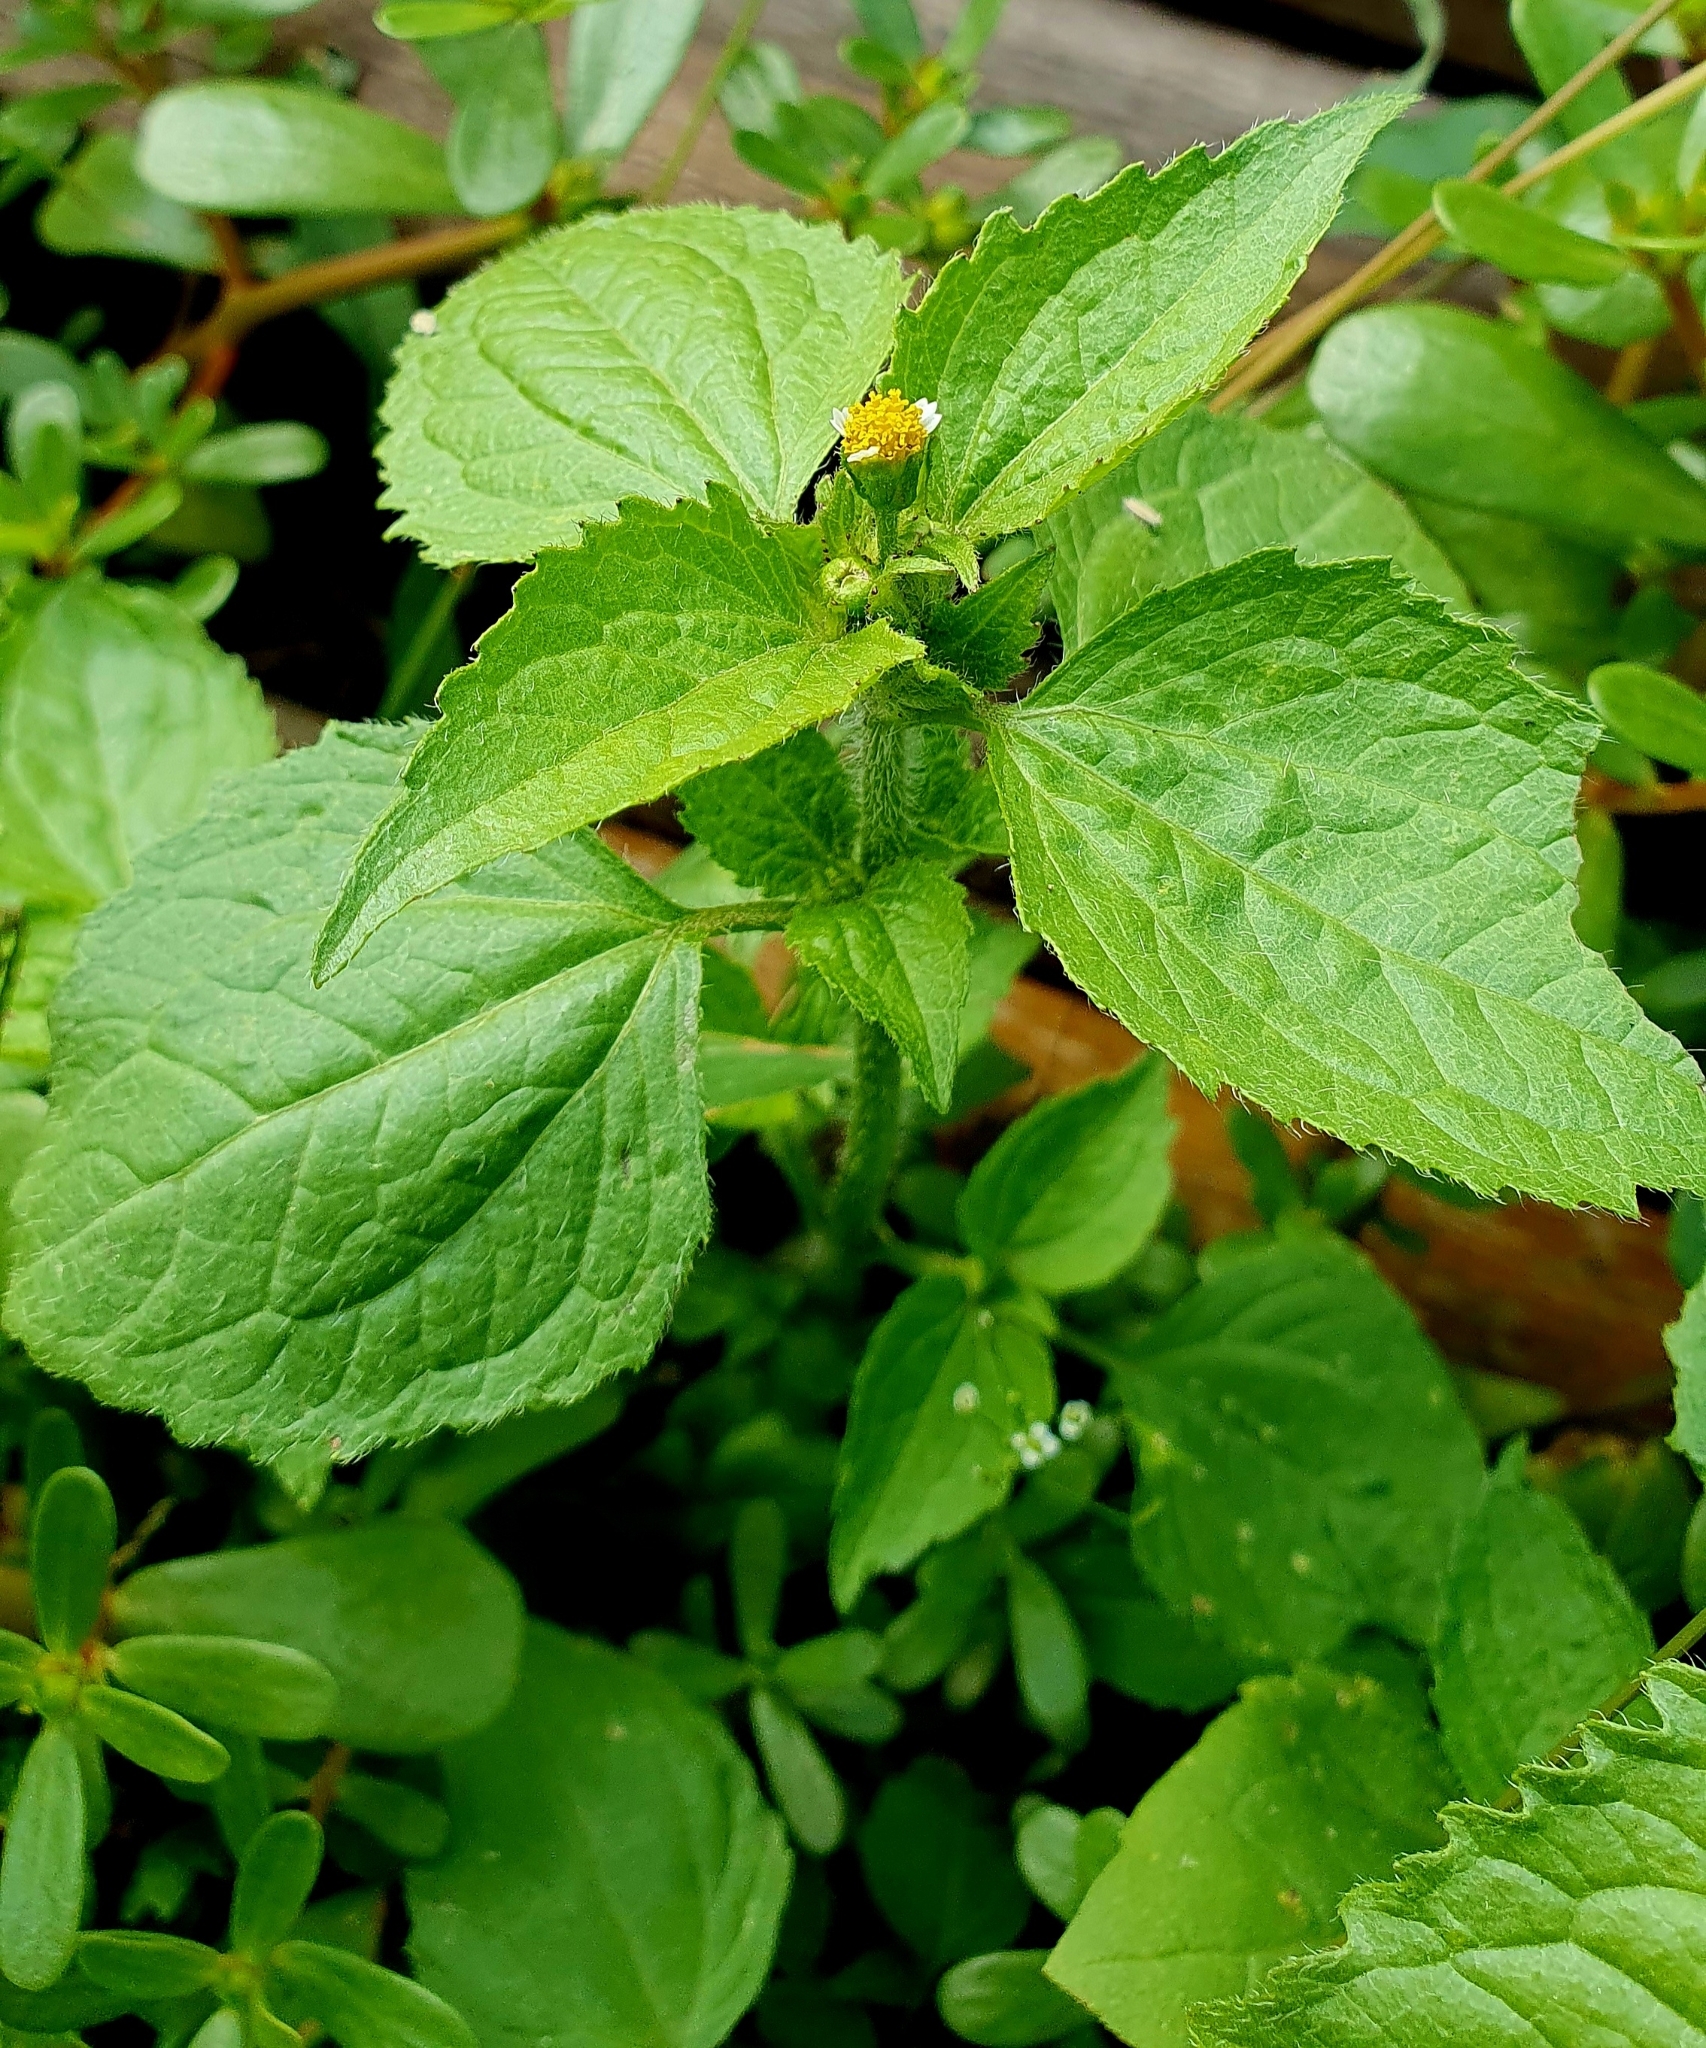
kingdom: Plantae
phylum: Tracheophyta
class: Magnoliopsida
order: Asterales
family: Asteraceae
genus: Galinsoga
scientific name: Galinsoga quadriradiata
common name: Shaggy soldier
